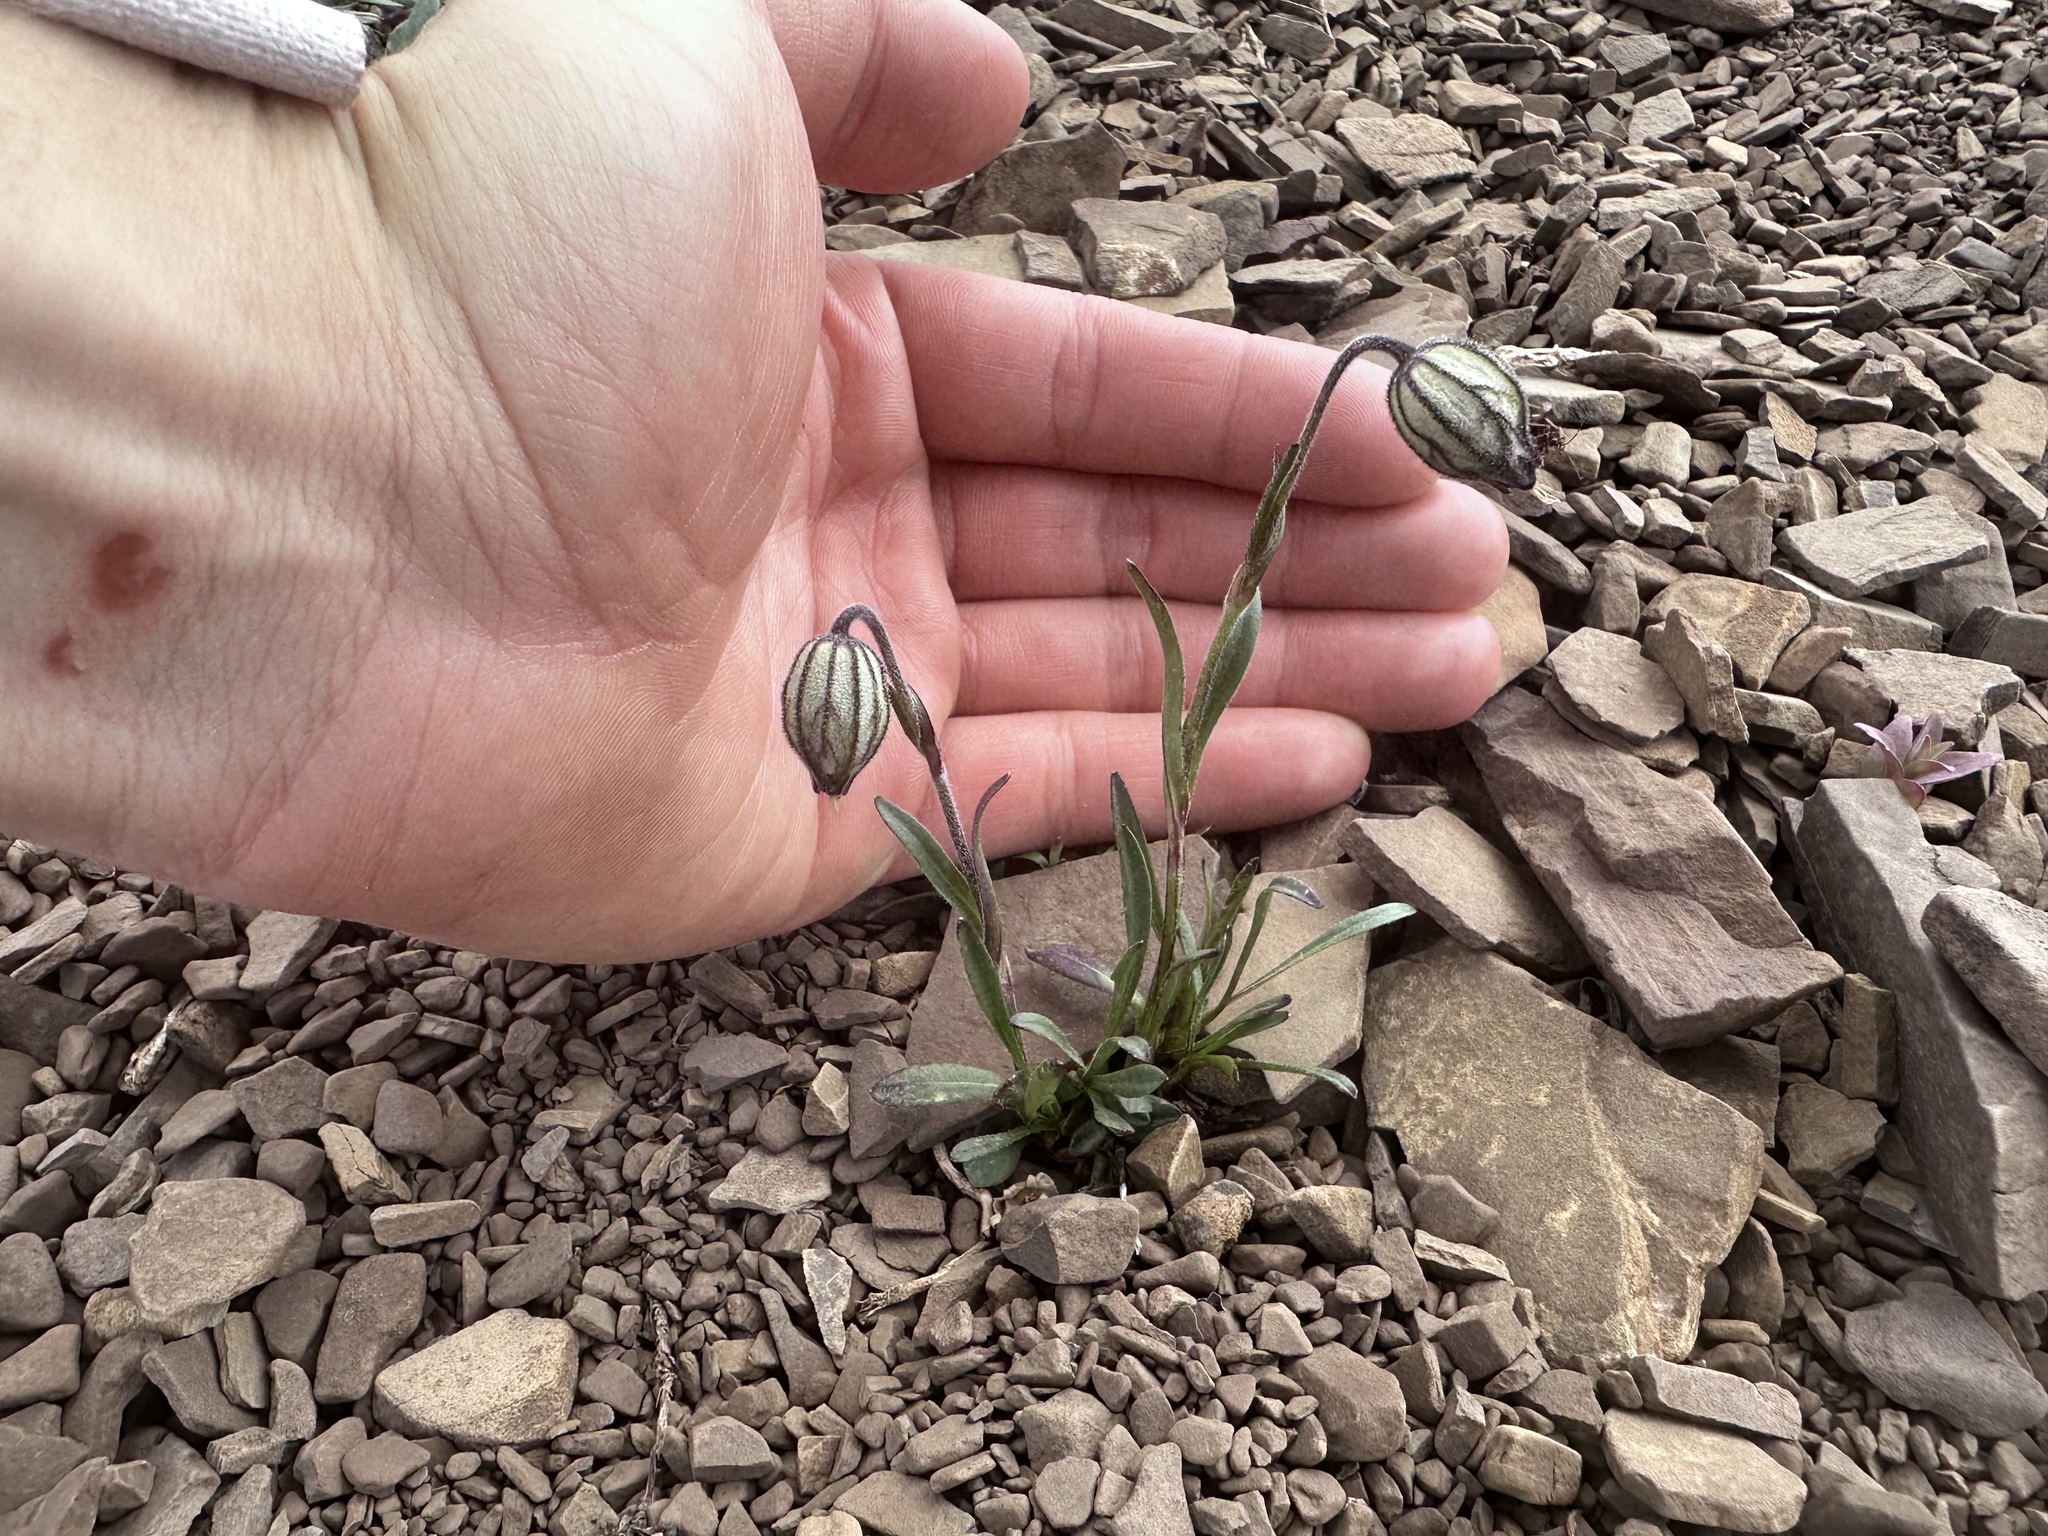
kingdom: Plantae
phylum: Tracheophyta
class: Magnoliopsida
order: Caryophyllales
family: Caryophyllaceae
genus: Silene
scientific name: Silene uralensis
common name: Nodding campion
